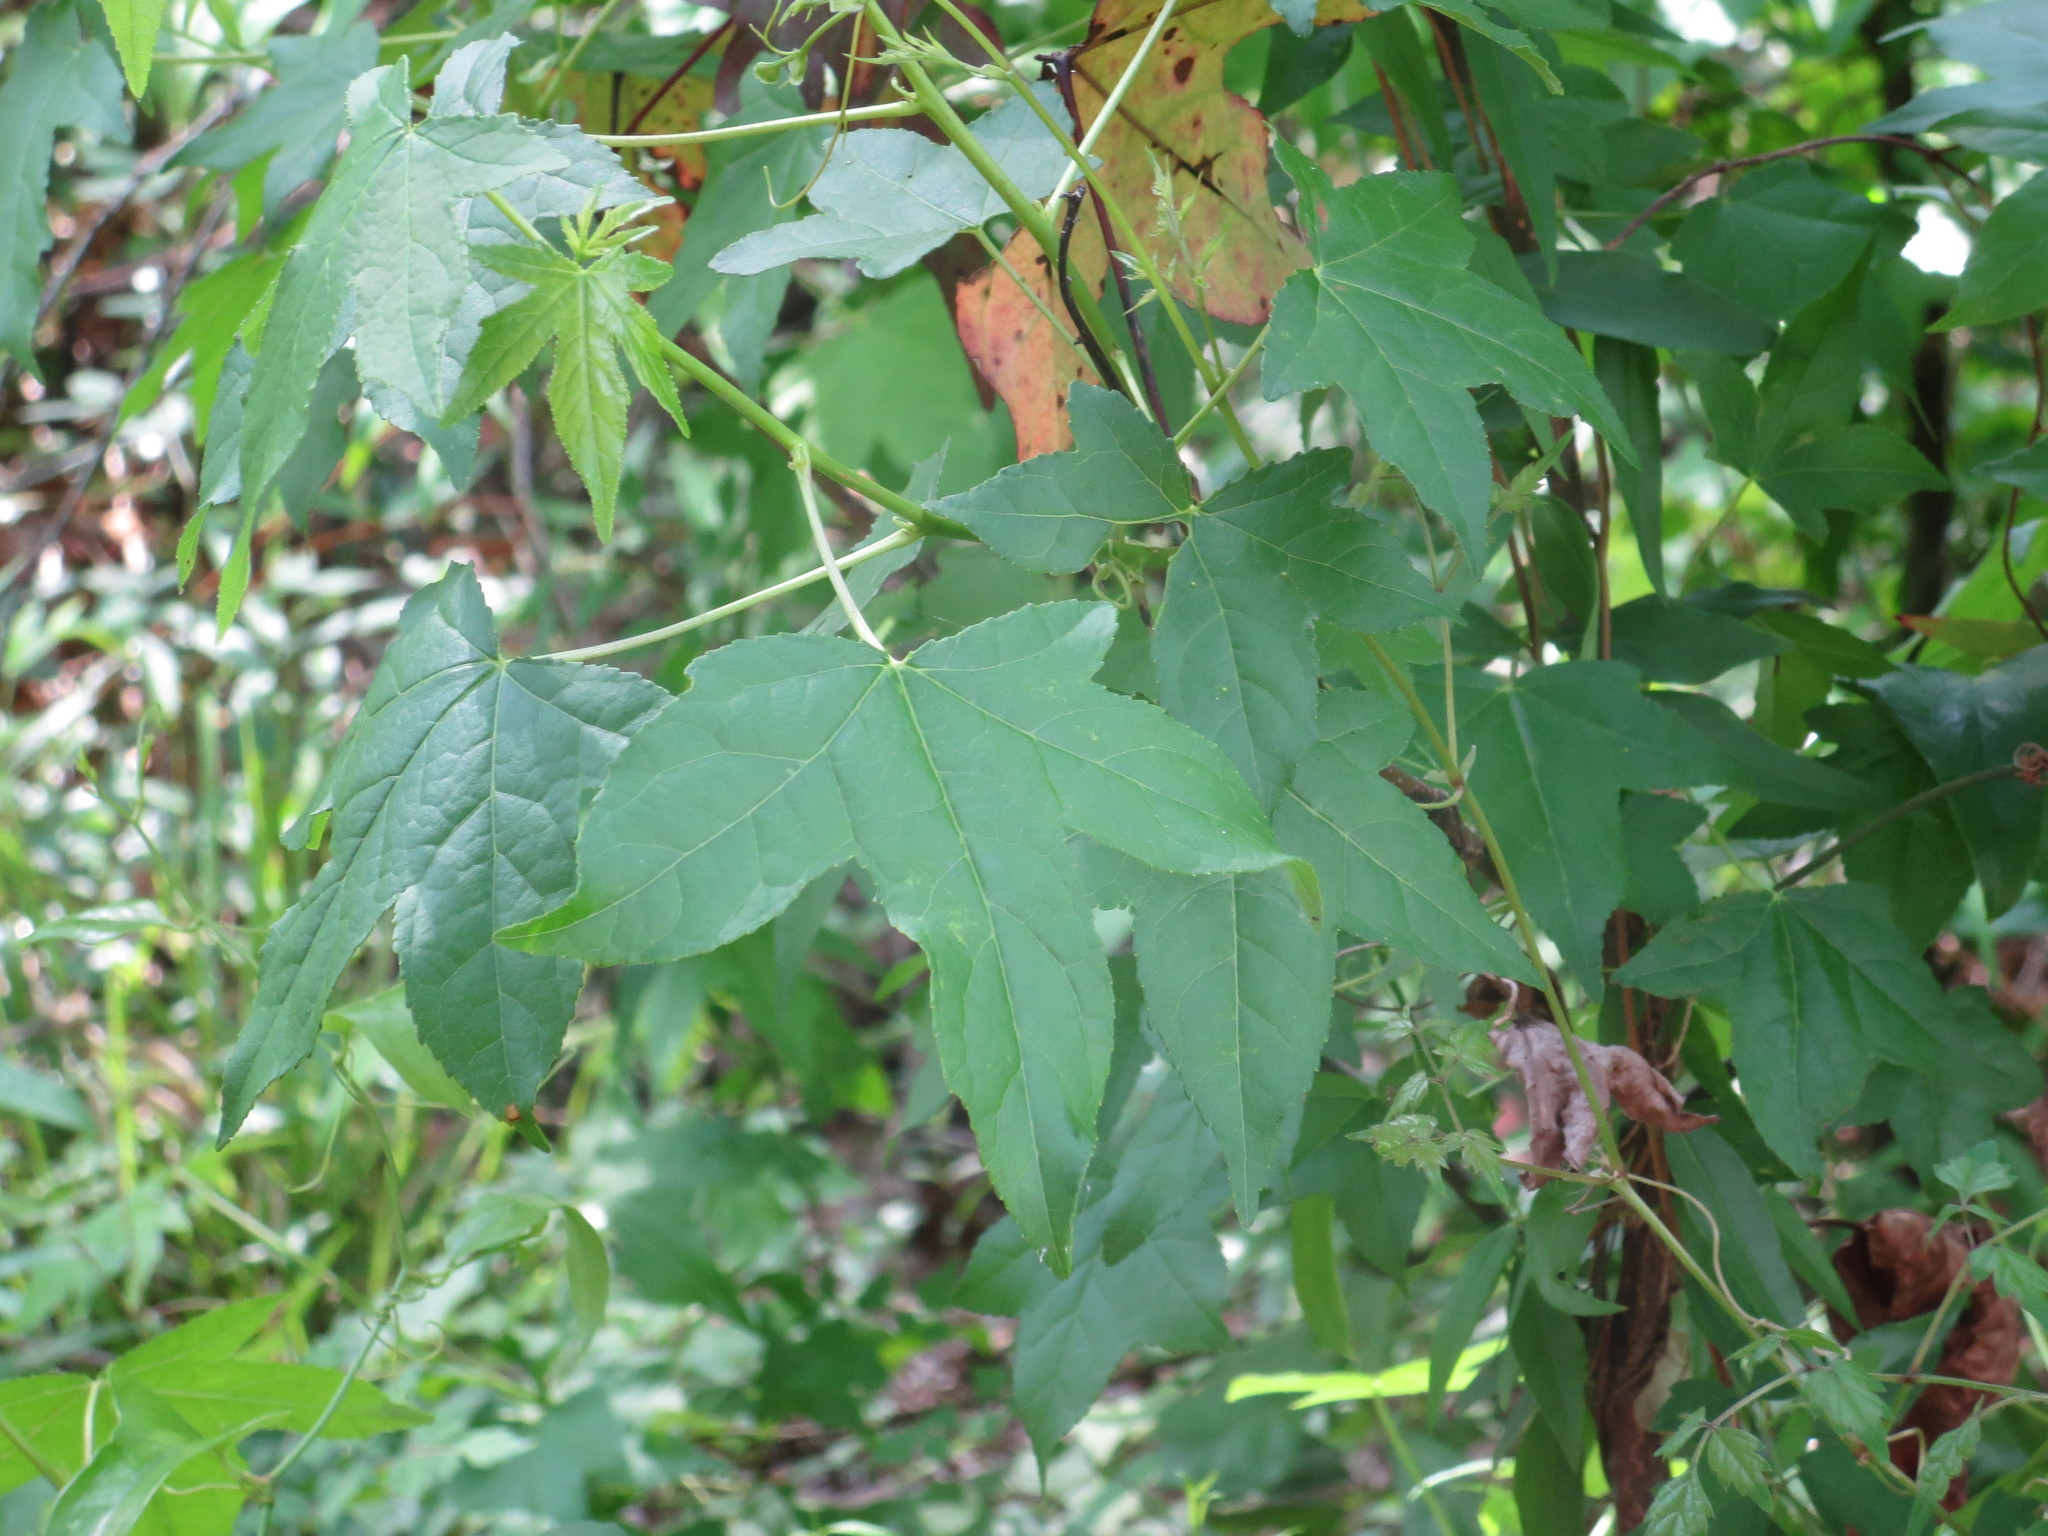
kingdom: Plantae
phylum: Tracheophyta
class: Magnoliopsida
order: Saxifragales
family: Altingiaceae
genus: Liquidambar
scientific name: Liquidambar styraciflua
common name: Sweet gum
